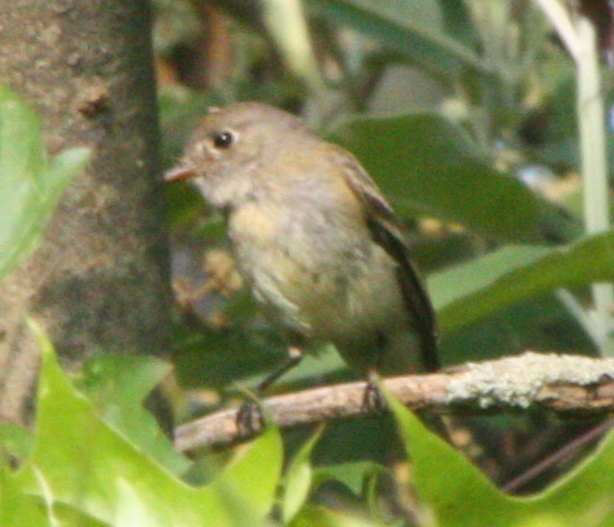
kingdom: Animalia
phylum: Chordata
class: Aves
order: Passeriformes
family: Tyrannidae
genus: Empidonax
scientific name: Empidonax difficilis
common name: Pacific-slope flycatcher
